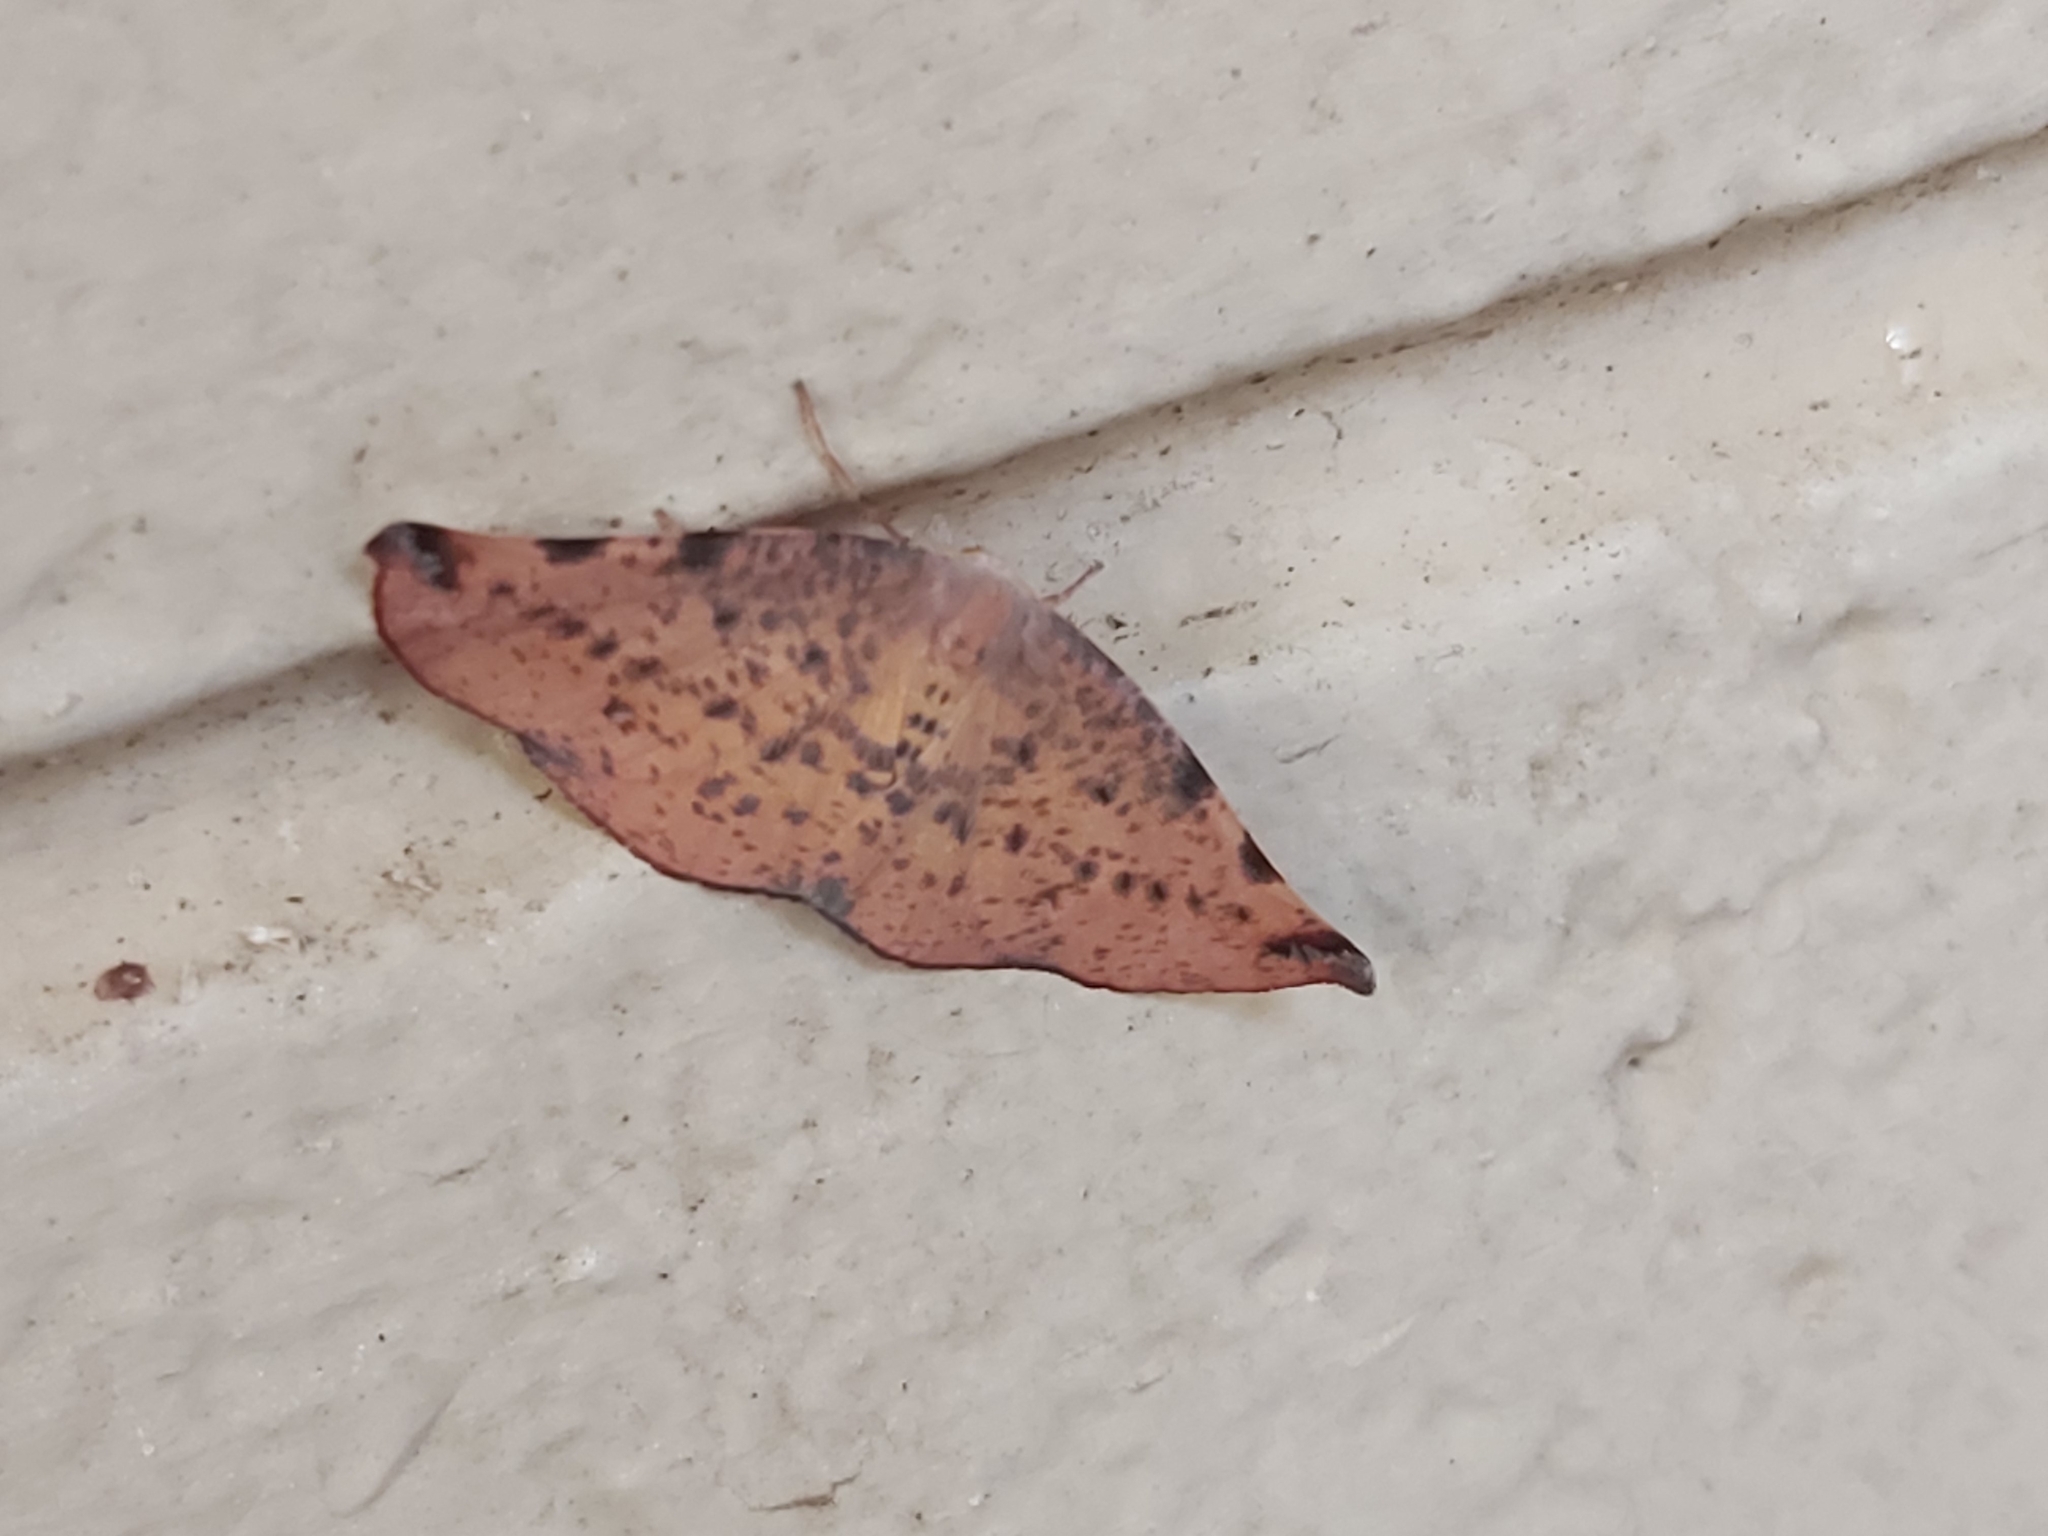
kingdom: Animalia
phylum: Arthropoda
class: Insecta
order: Lepidoptera
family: Geometridae
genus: Onycodes
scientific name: Onycodes traumataria
